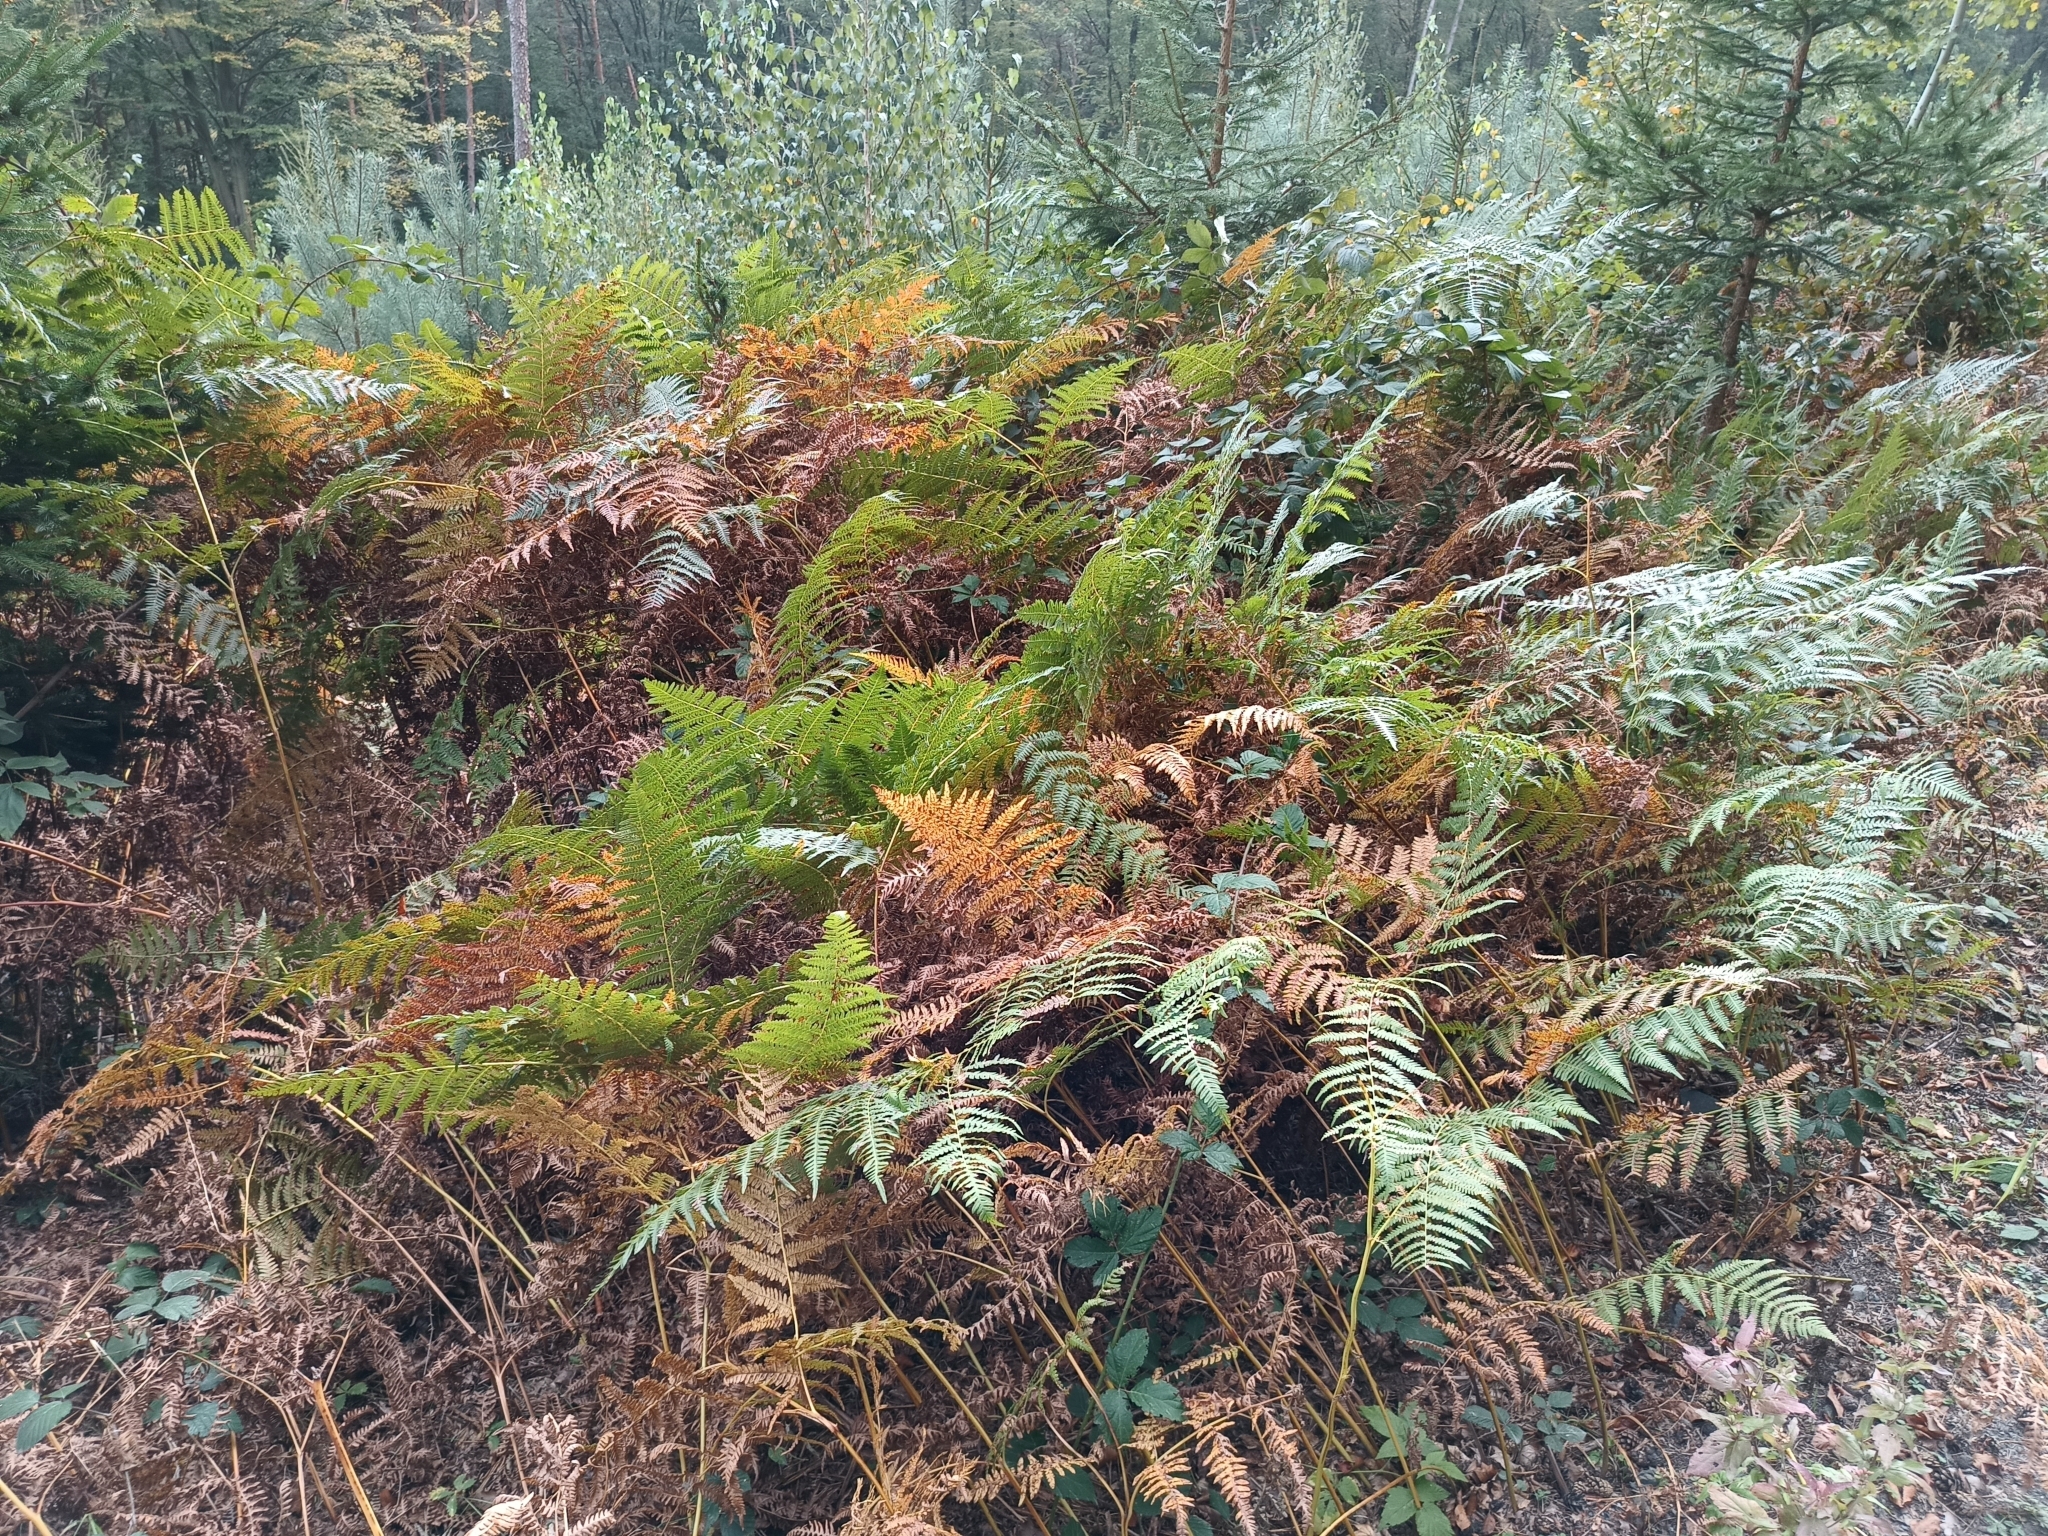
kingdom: Plantae
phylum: Tracheophyta
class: Polypodiopsida
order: Polypodiales
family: Dennstaedtiaceae
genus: Pteridium
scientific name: Pteridium aquilinum
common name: Bracken
